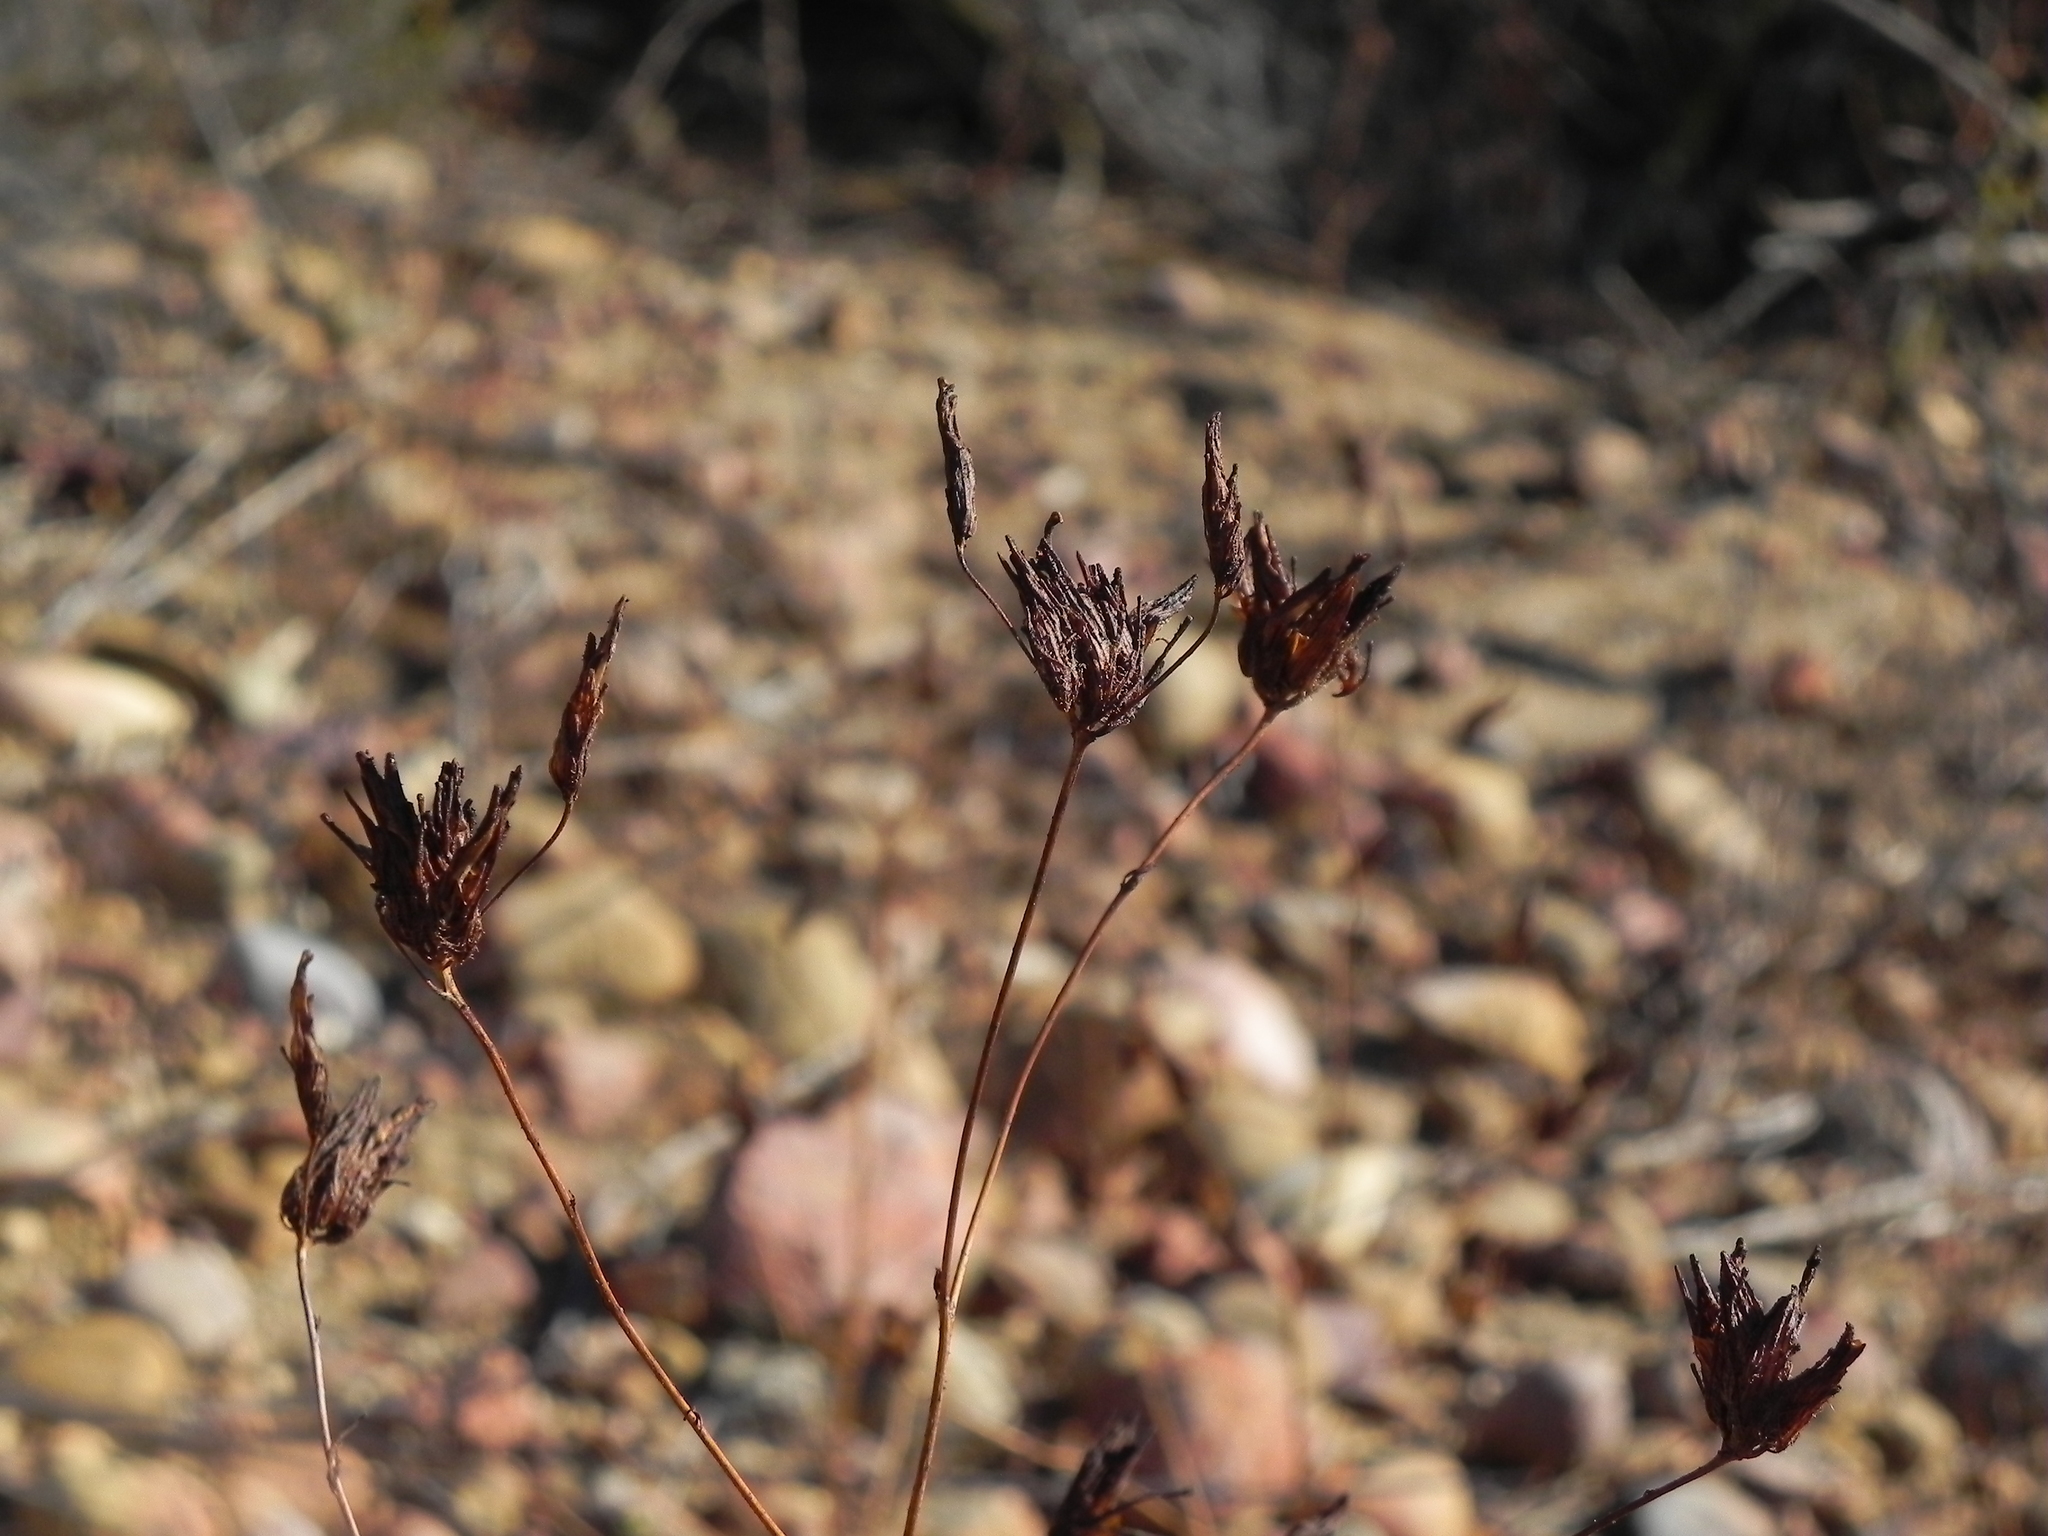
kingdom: Plantae
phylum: Tracheophyta
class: Magnoliopsida
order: Lamiales
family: Orobanchaceae
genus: Cordylanthus
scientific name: Cordylanthus rigidus
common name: Stiff-branch bird's-beak
